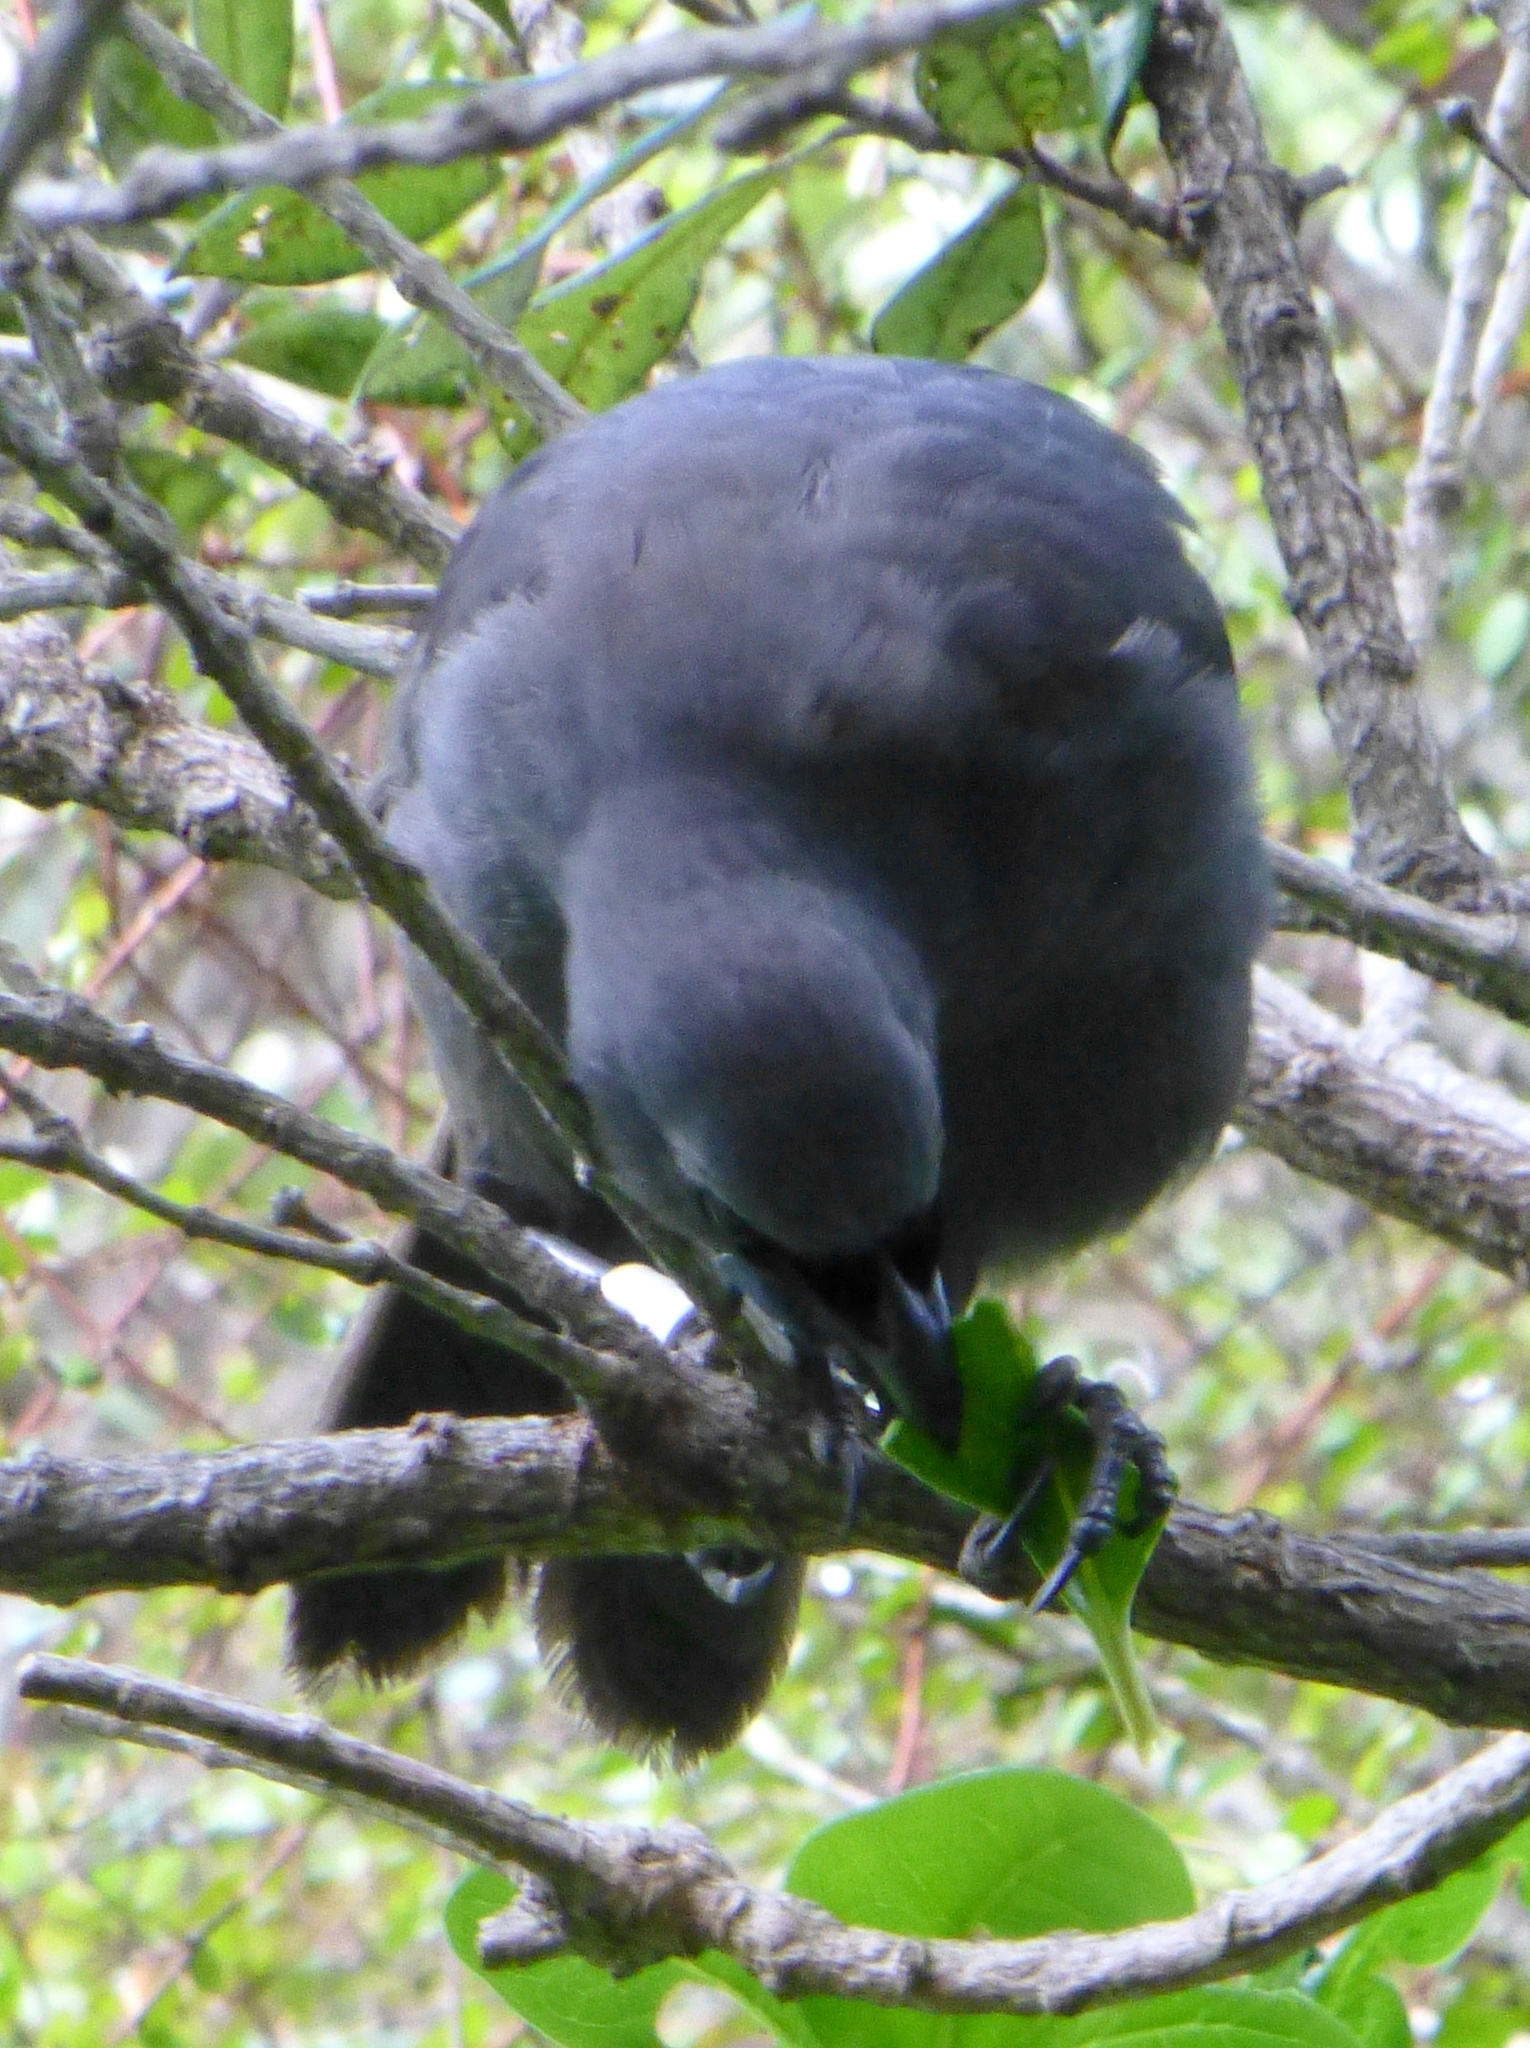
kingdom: Animalia
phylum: Chordata
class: Aves
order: Passeriformes
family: Callaeatidae
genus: Callaeas
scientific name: Callaeas cinereus
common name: South island kokako
